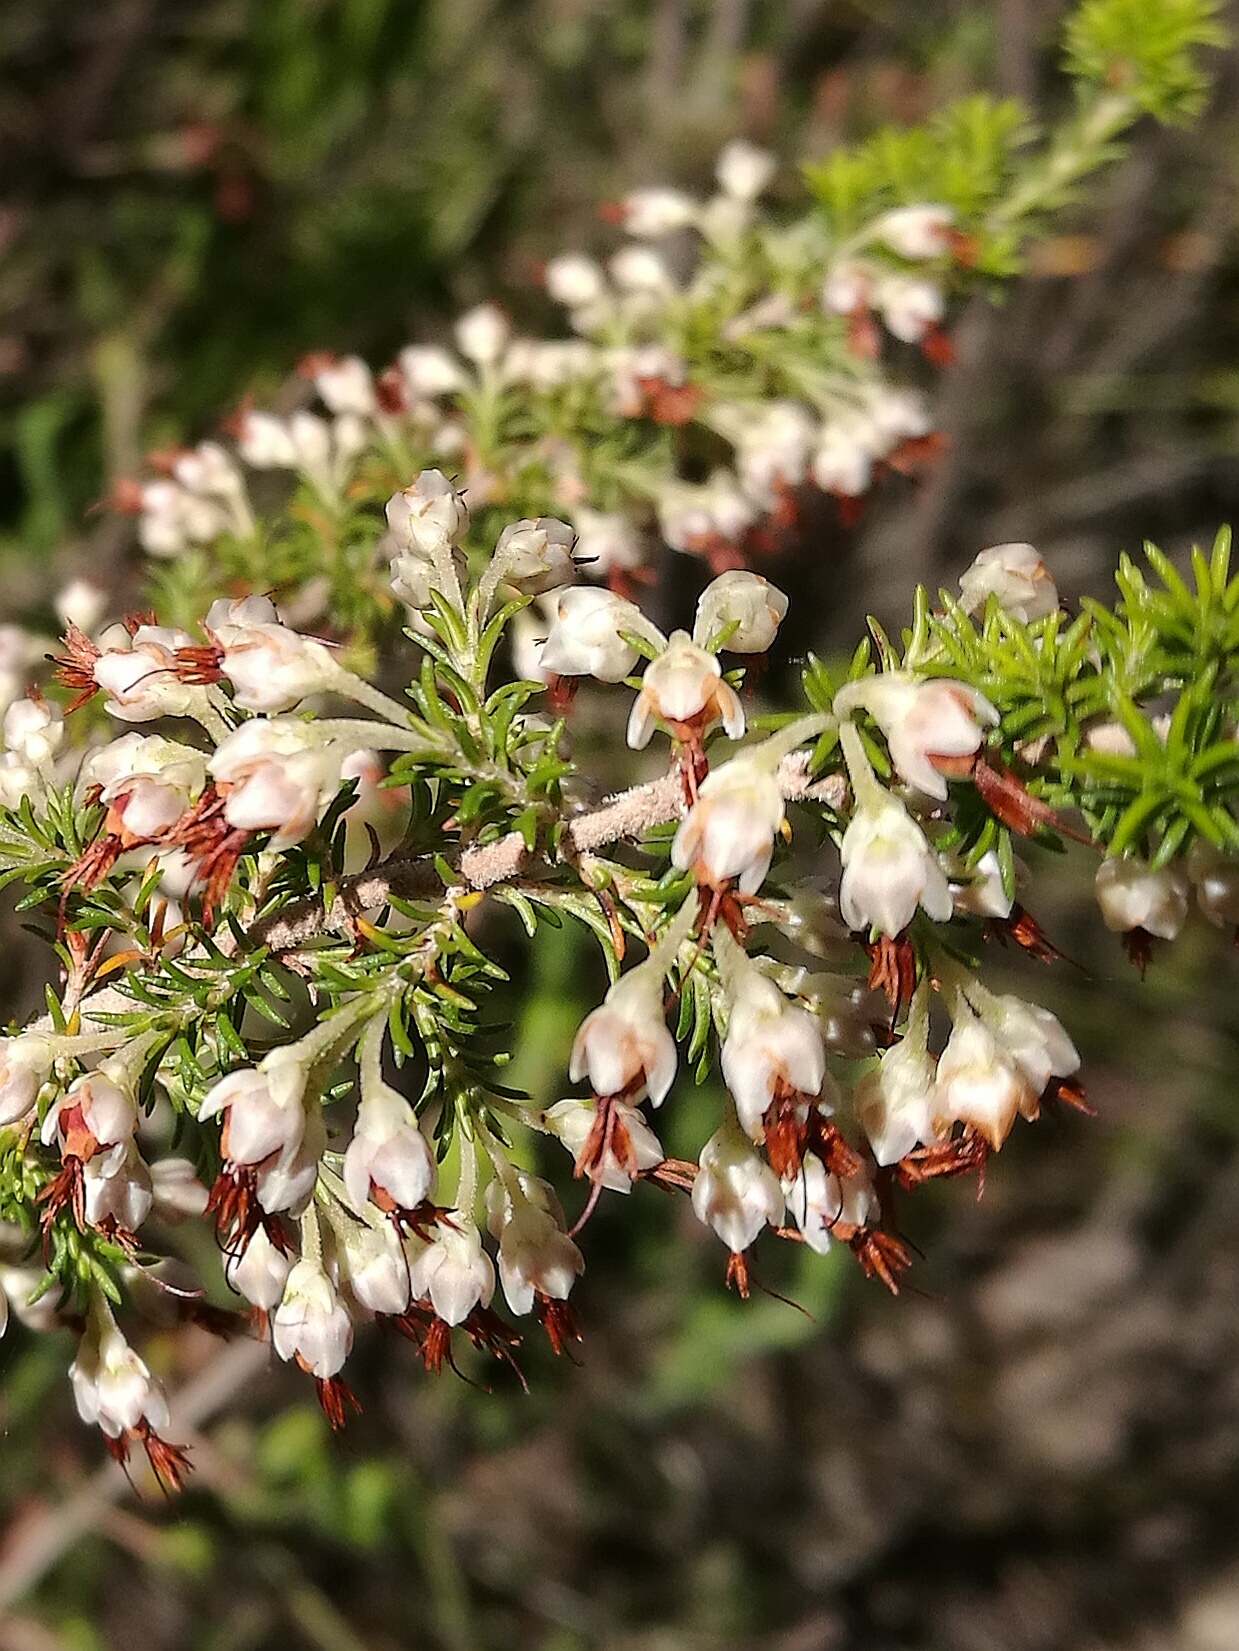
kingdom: Plantae
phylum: Tracheophyta
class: Magnoliopsida
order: Ericales
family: Ericaceae
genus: Erica
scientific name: Erica penicilliformis
